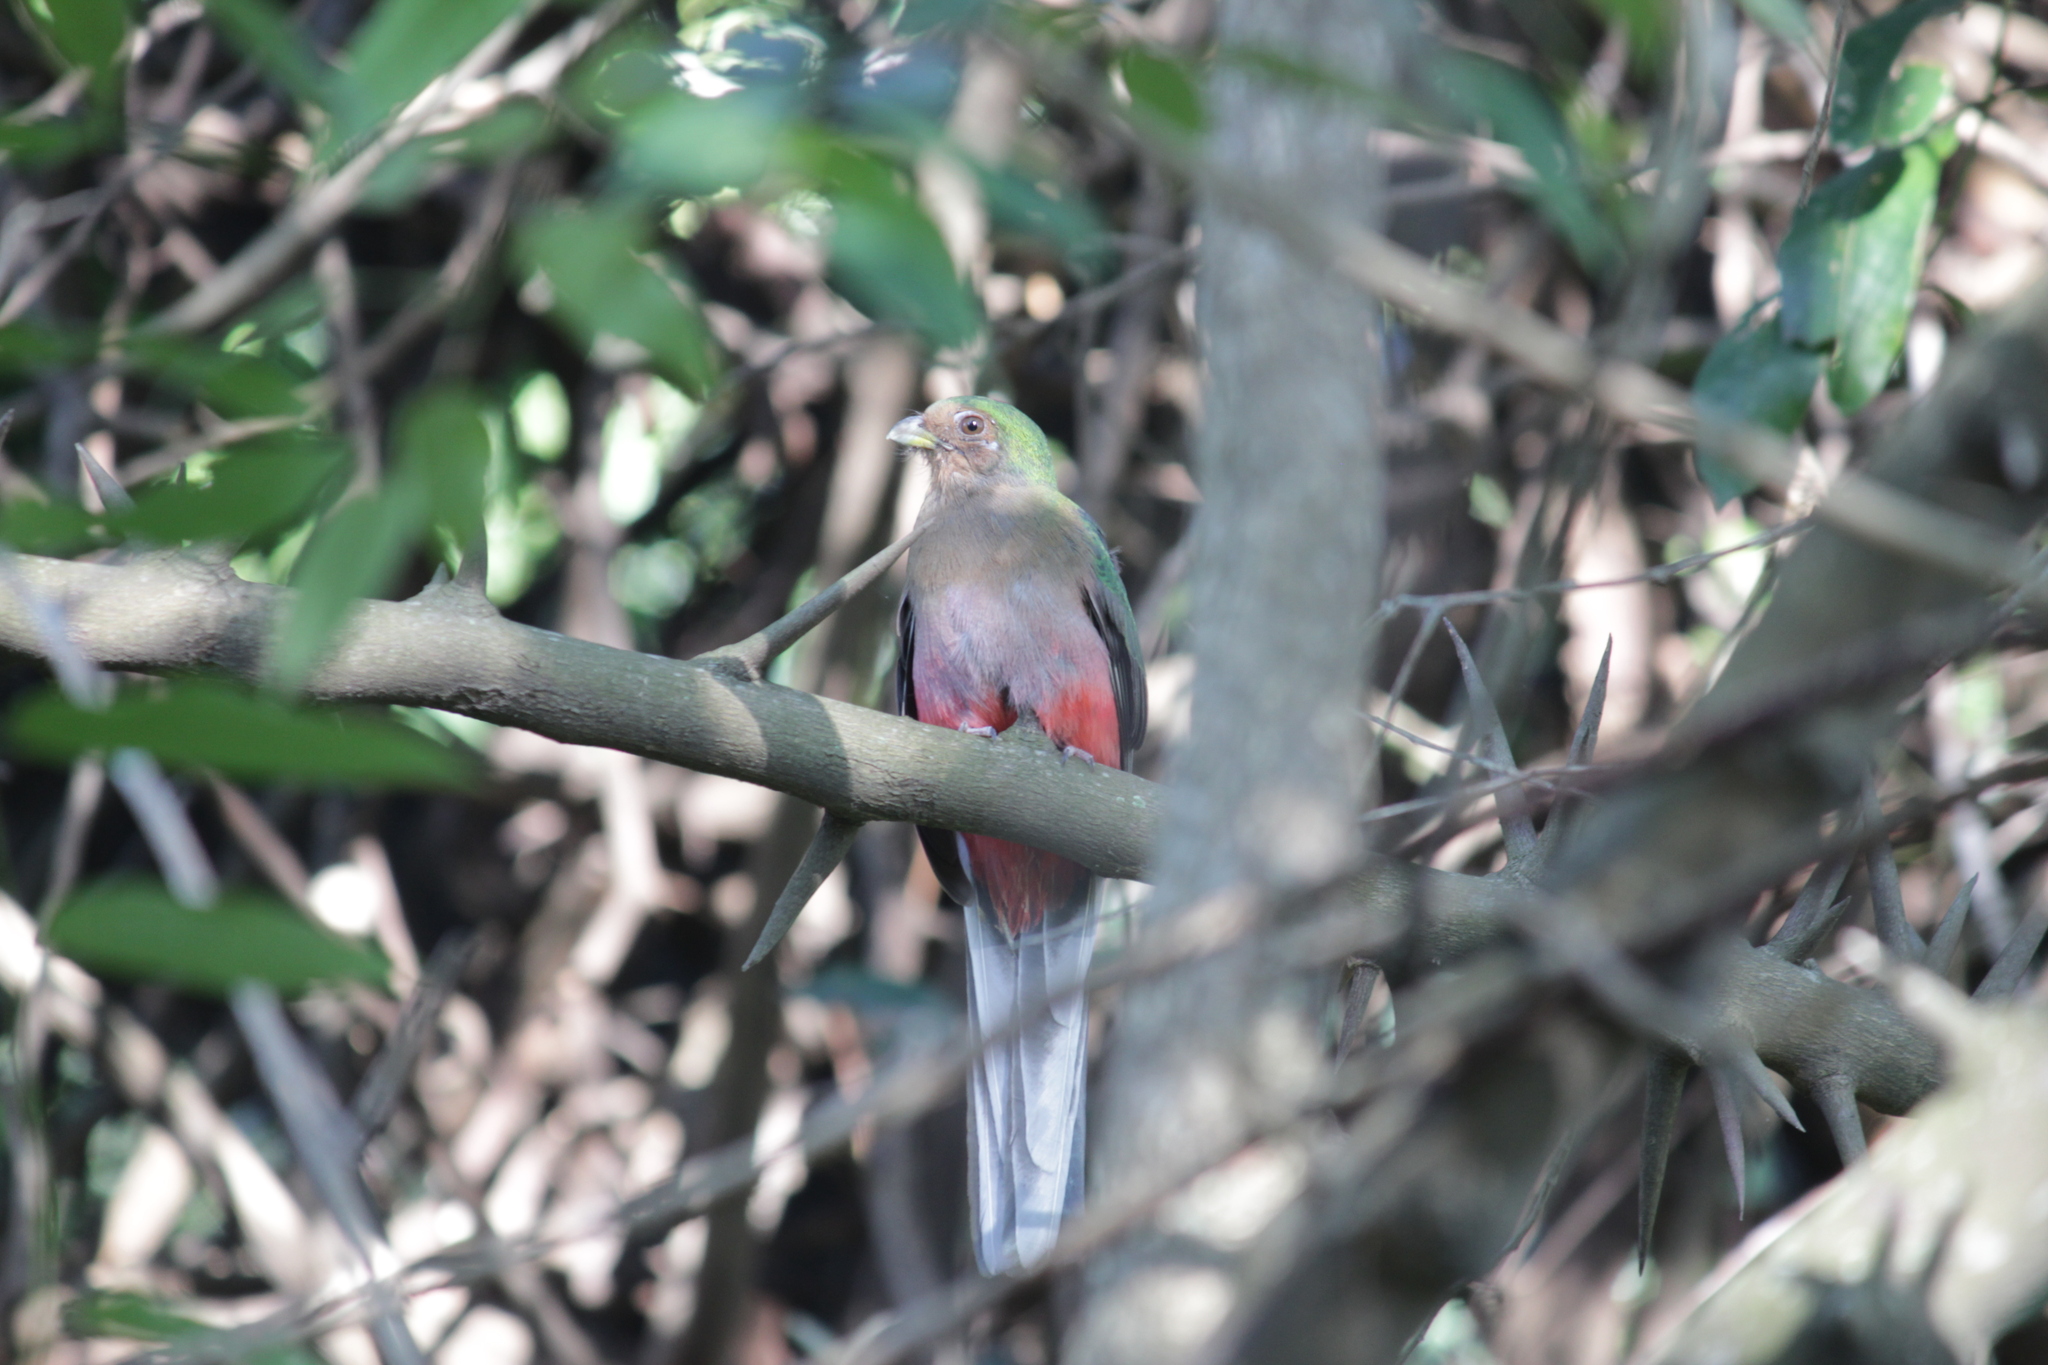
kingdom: Animalia
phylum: Chordata
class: Aves
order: Trogoniformes
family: Trogonidae
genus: Apaloderma
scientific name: Apaloderma narina
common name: Narina trogon
